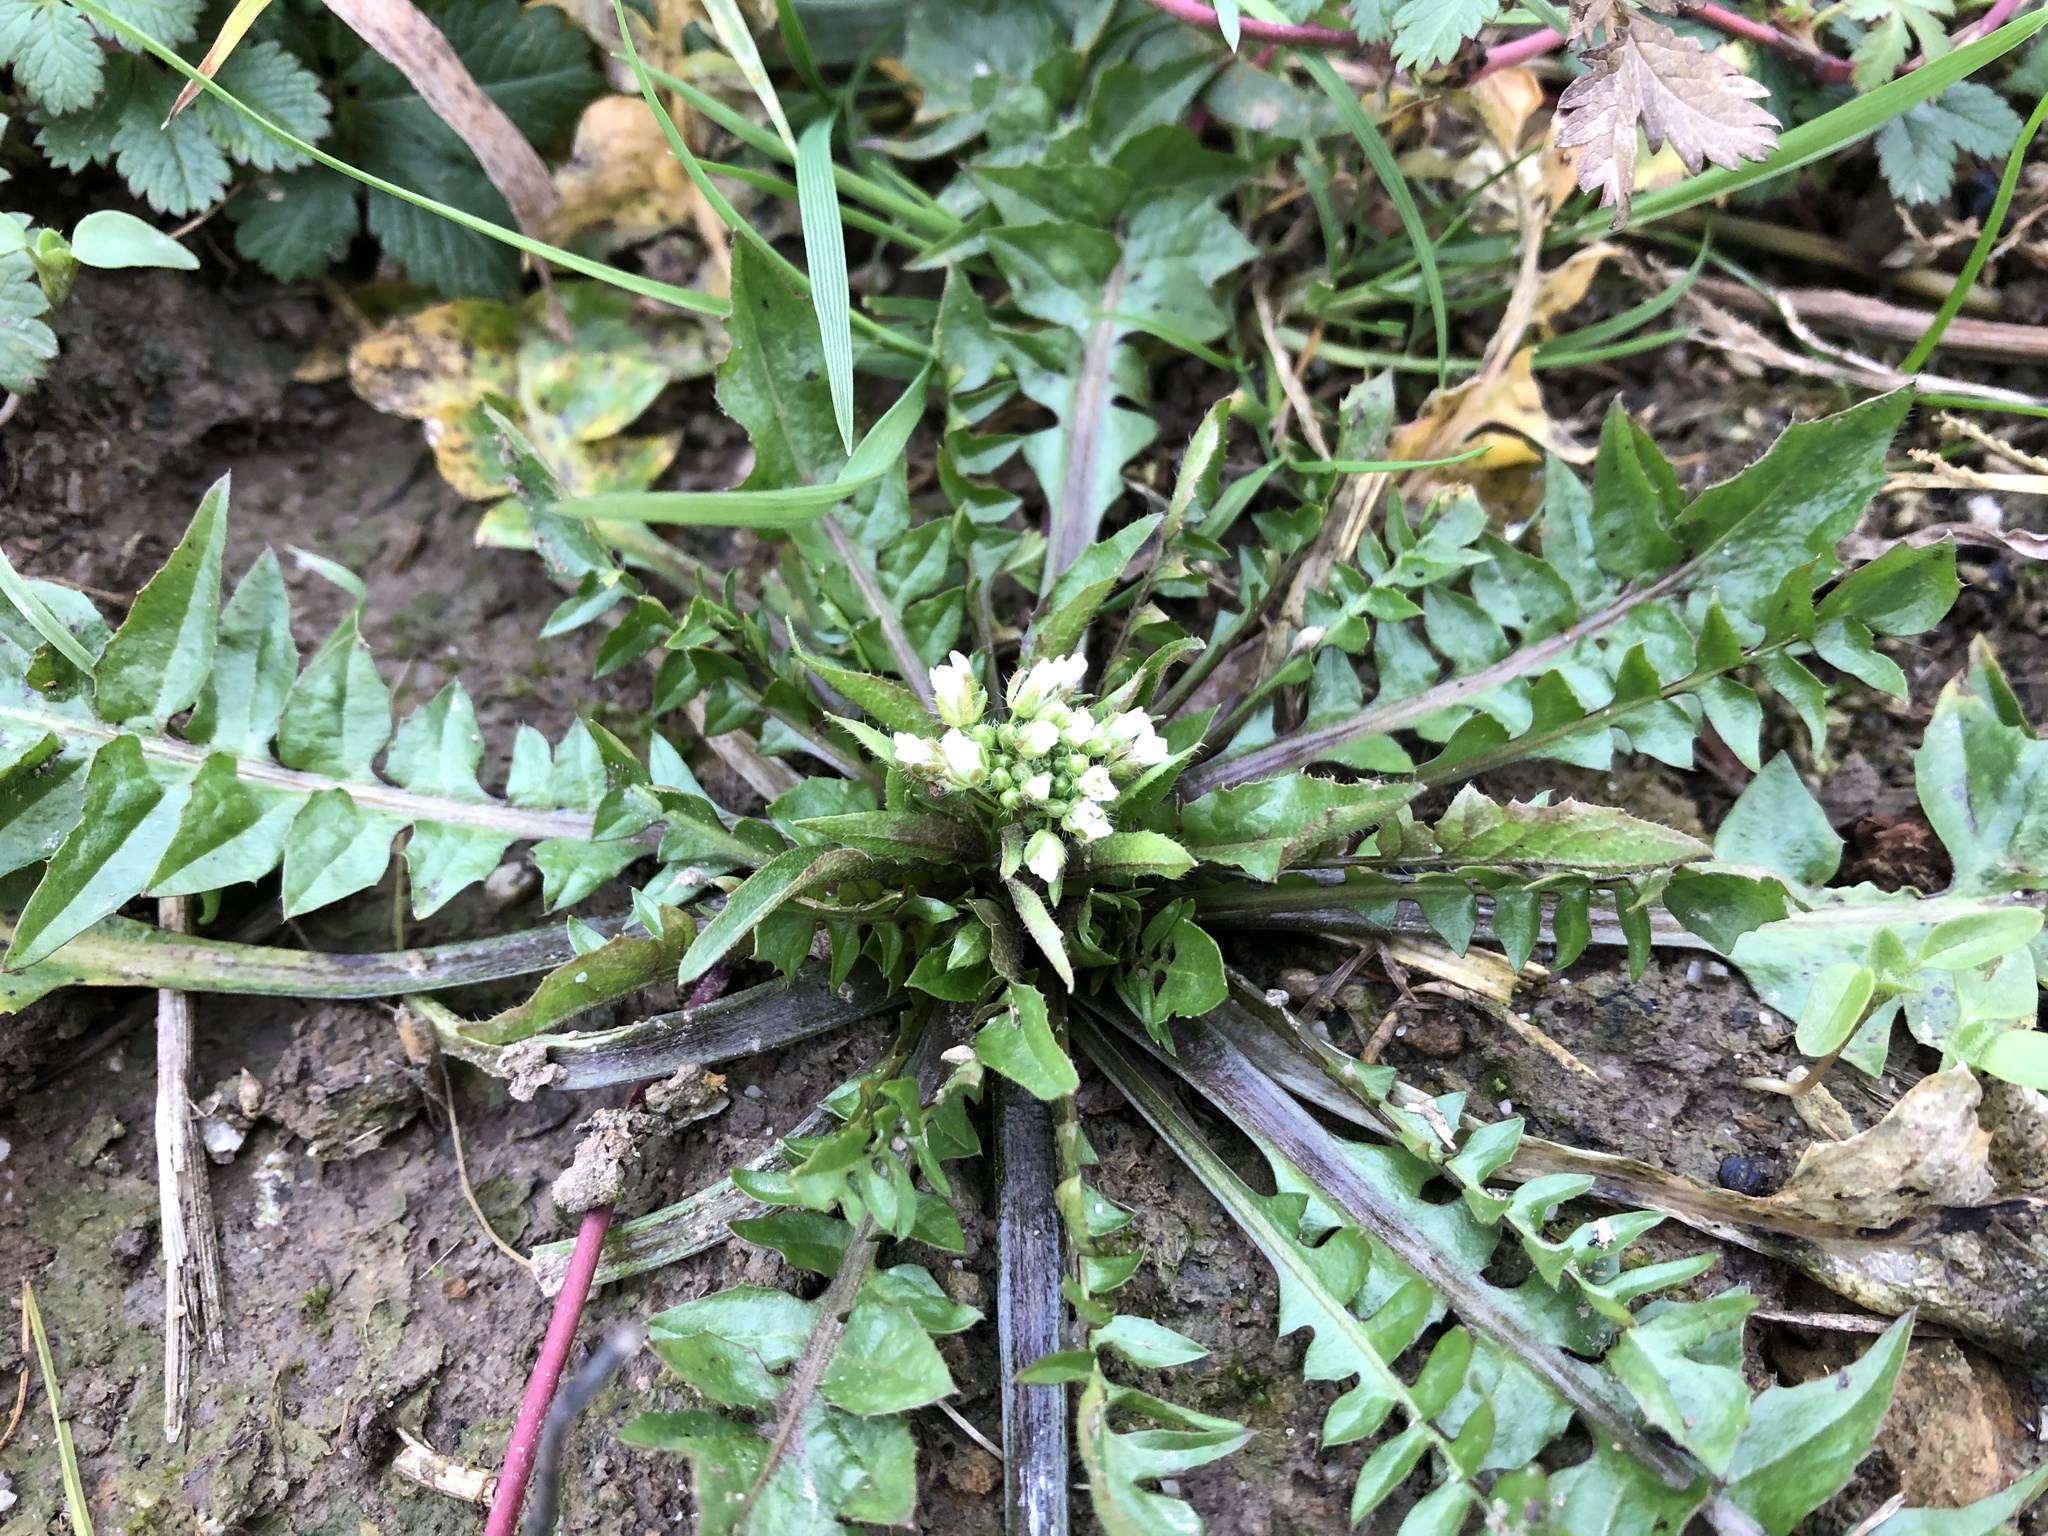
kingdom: Plantae
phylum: Tracheophyta
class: Magnoliopsida
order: Brassicales
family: Brassicaceae
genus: Capsella
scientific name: Capsella bursa-pastoris
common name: Shepherd's purse
